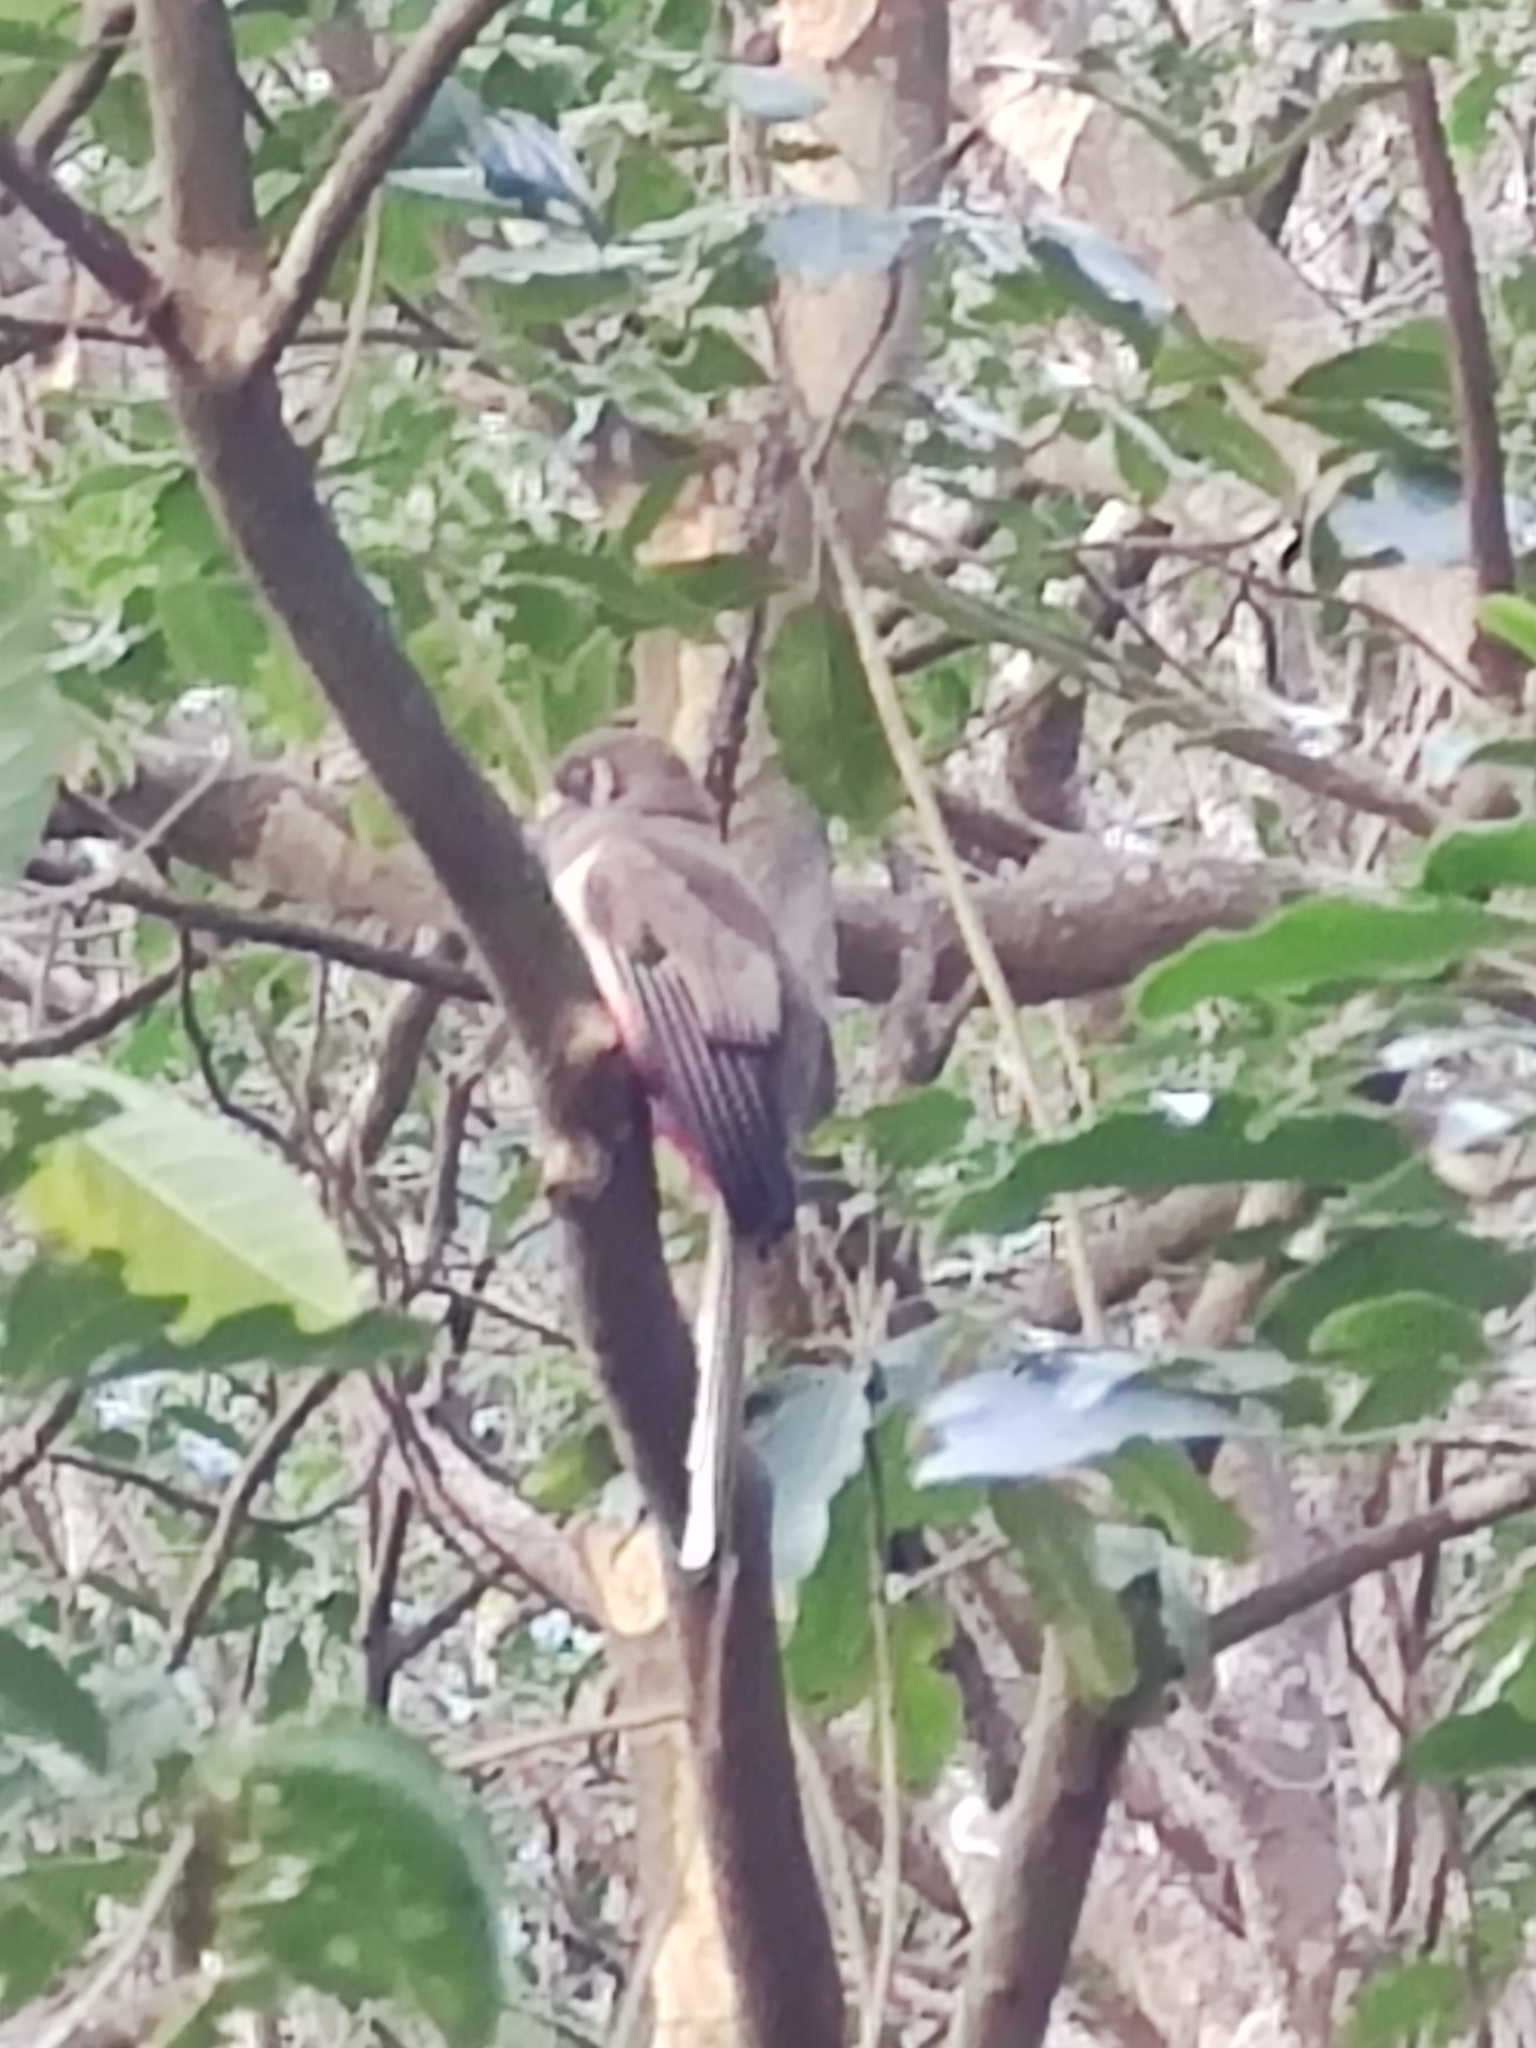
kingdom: Animalia
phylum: Chordata
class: Aves
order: Trogoniformes
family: Trogonidae
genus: Trogon
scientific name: Trogon elegans
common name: Elegant trogon
